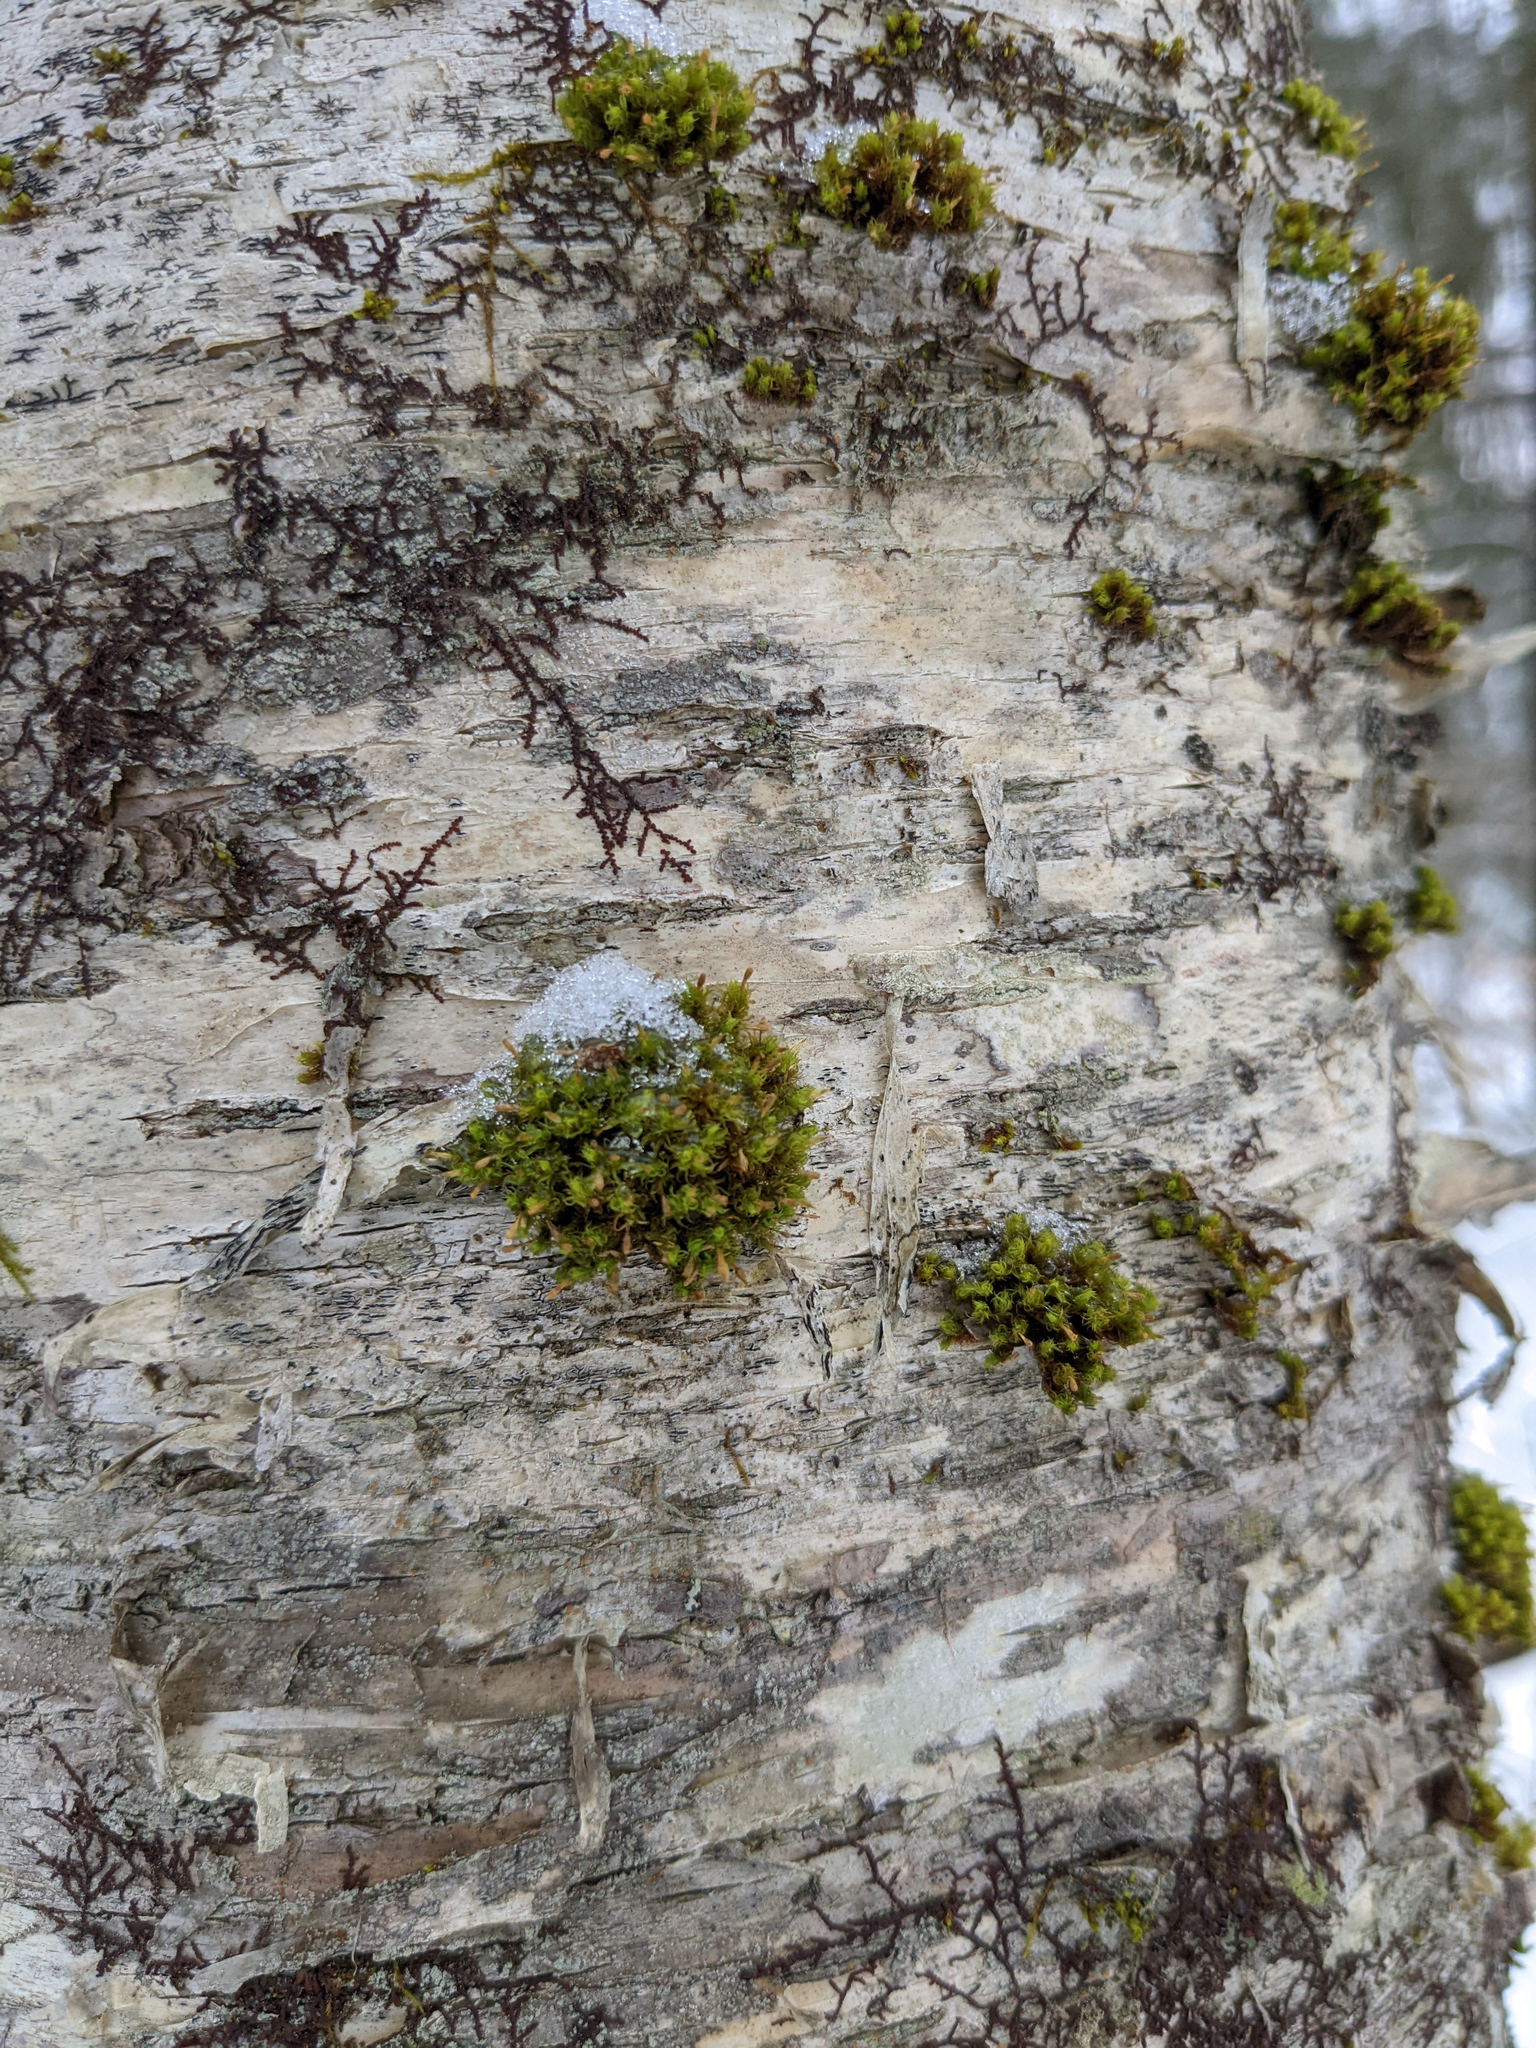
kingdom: Plantae
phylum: Bryophyta
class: Bryopsida
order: Orthotrichales
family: Orthotrichaceae
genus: Ulota
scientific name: Ulota crispa
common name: Crisped pincushion moss
